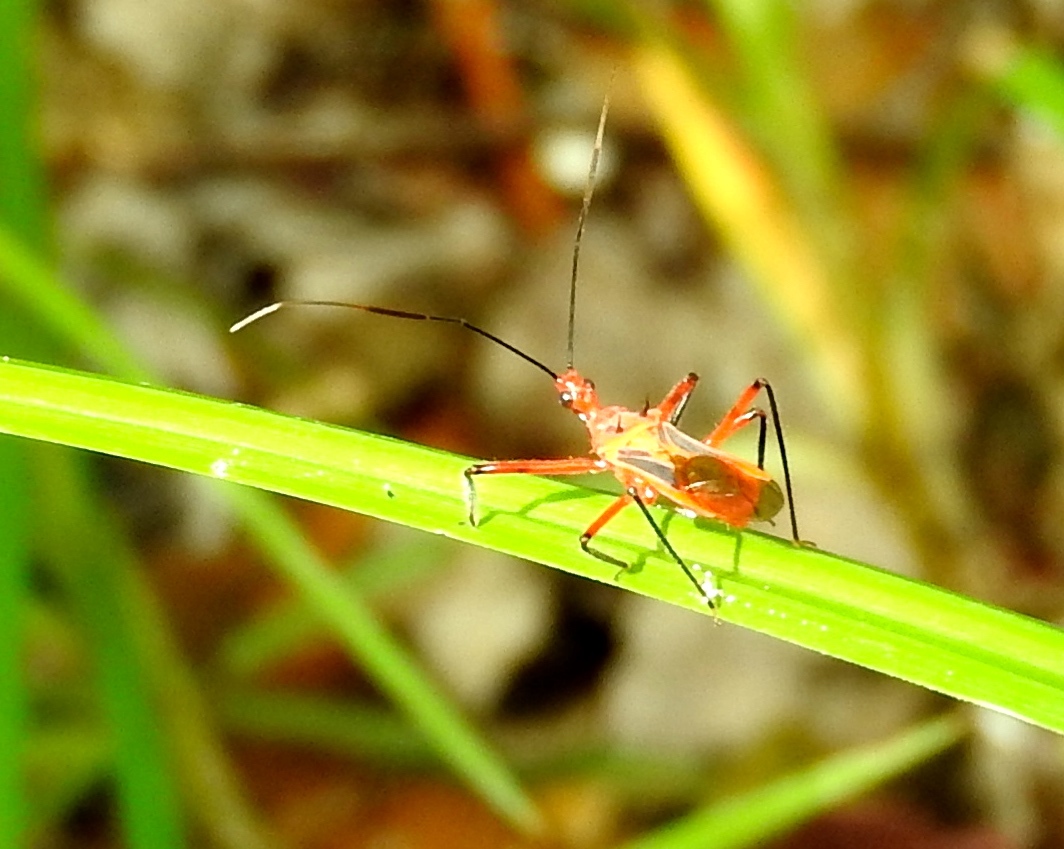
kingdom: Animalia
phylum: Arthropoda
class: Insecta
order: Hemiptera
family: Reduviidae
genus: Repipta
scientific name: Repipta
